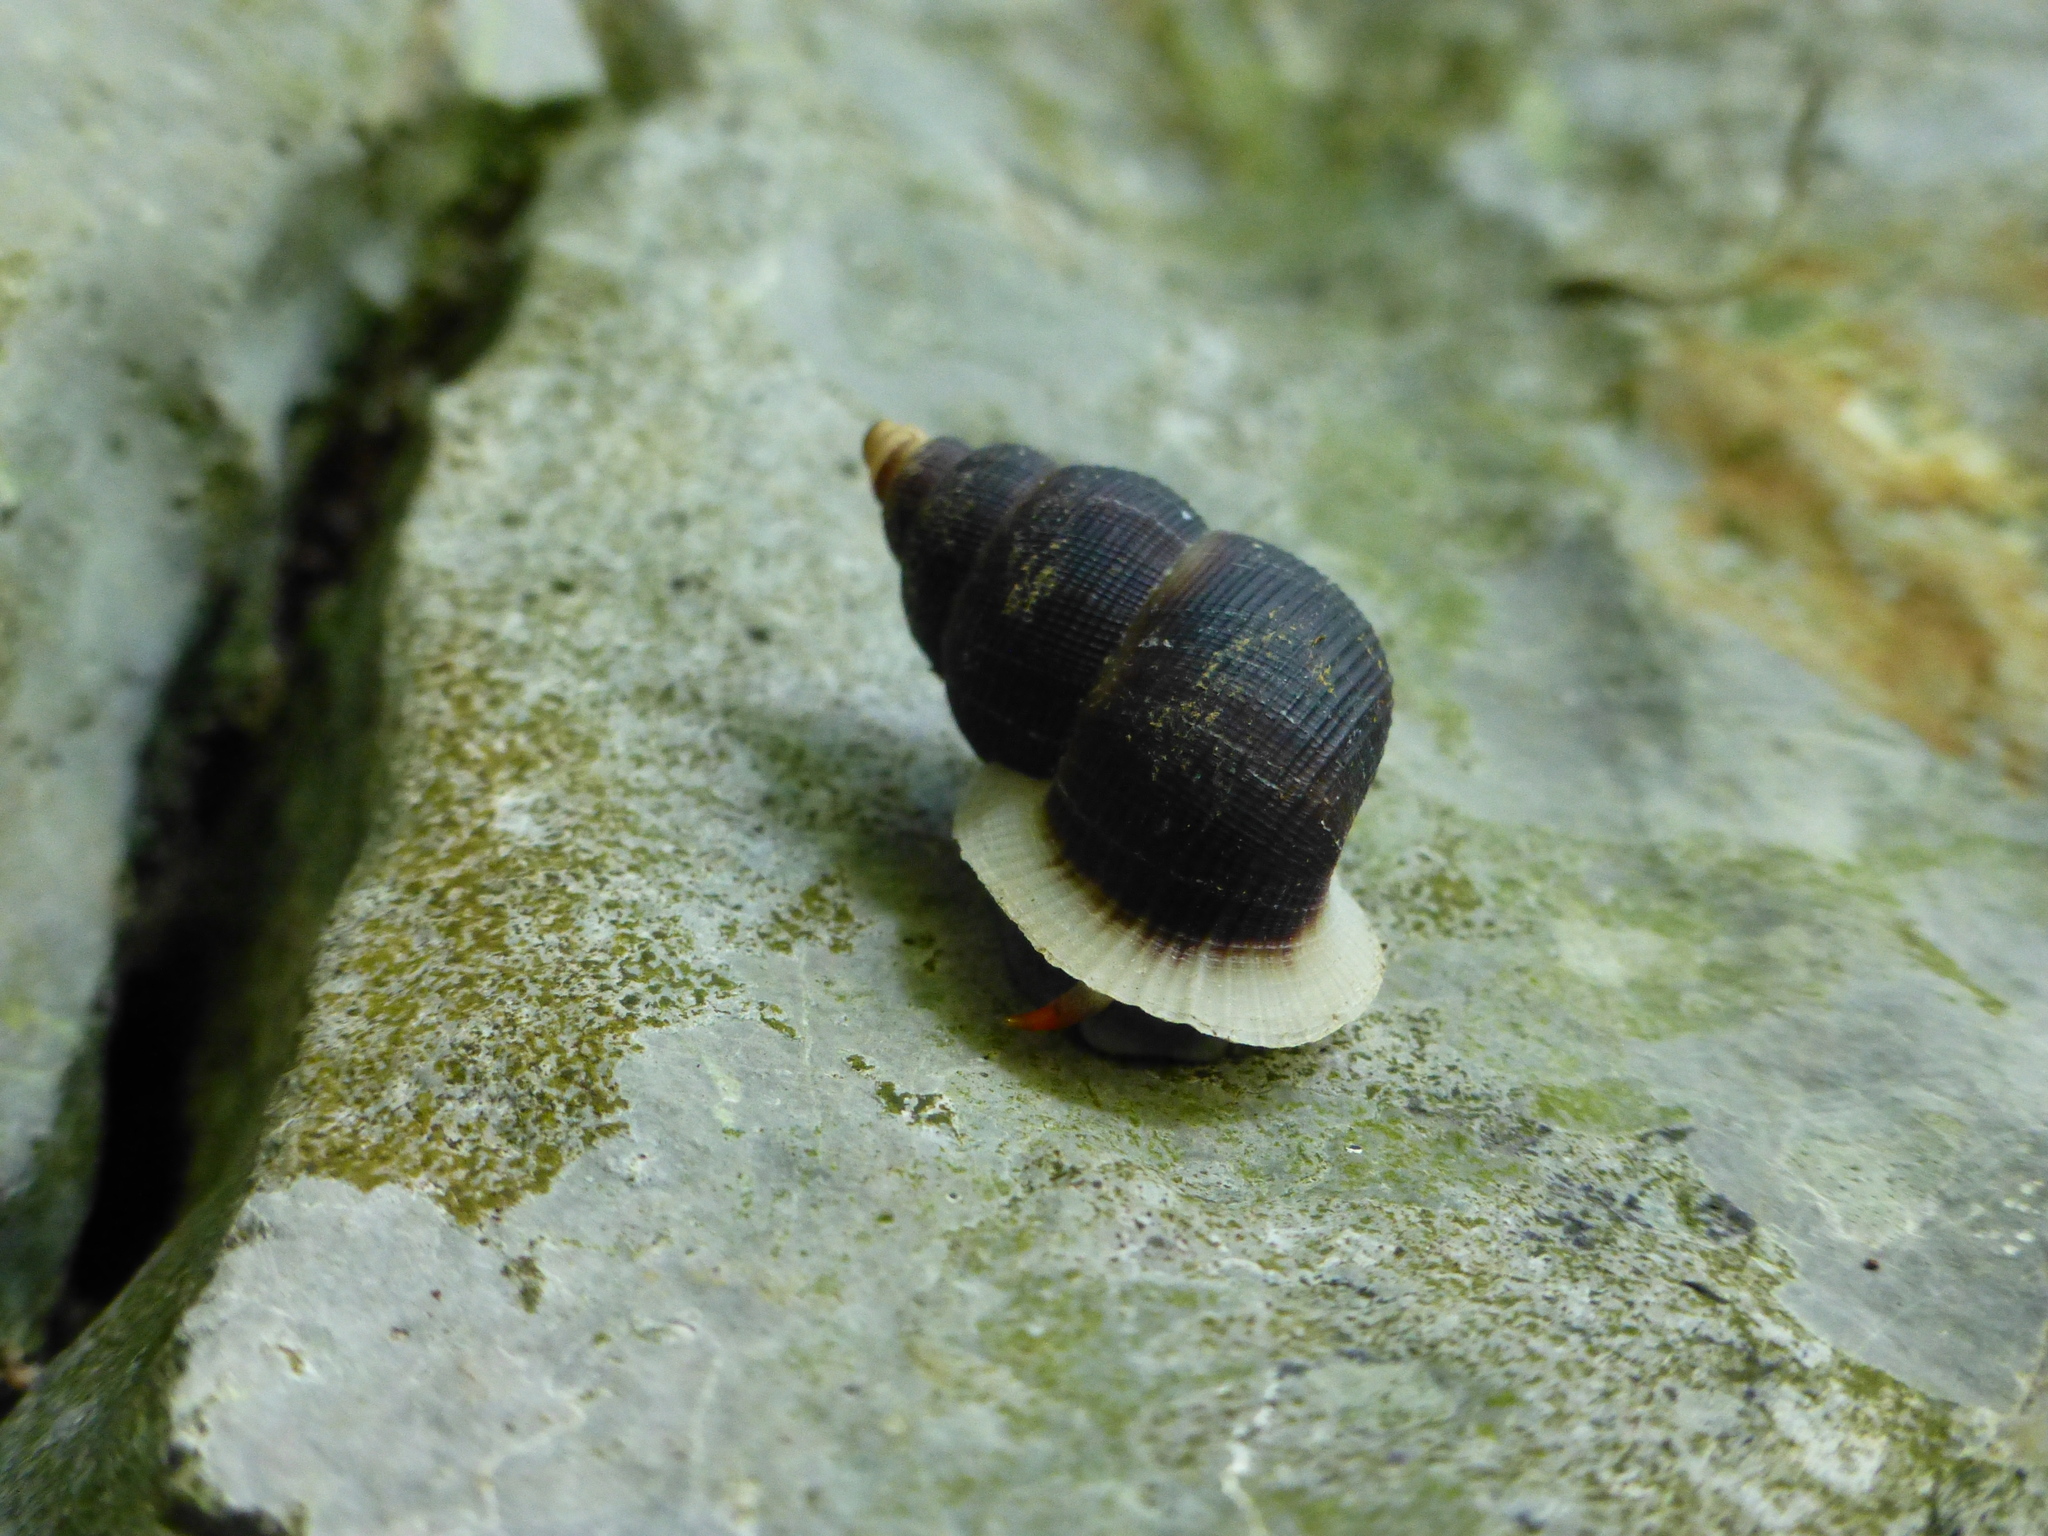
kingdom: Animalia
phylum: Mollusca
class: Gastropoda
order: Littorinimorpha
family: Annulariidae
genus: Chondrothyra
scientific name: Chondrothyra pudica
